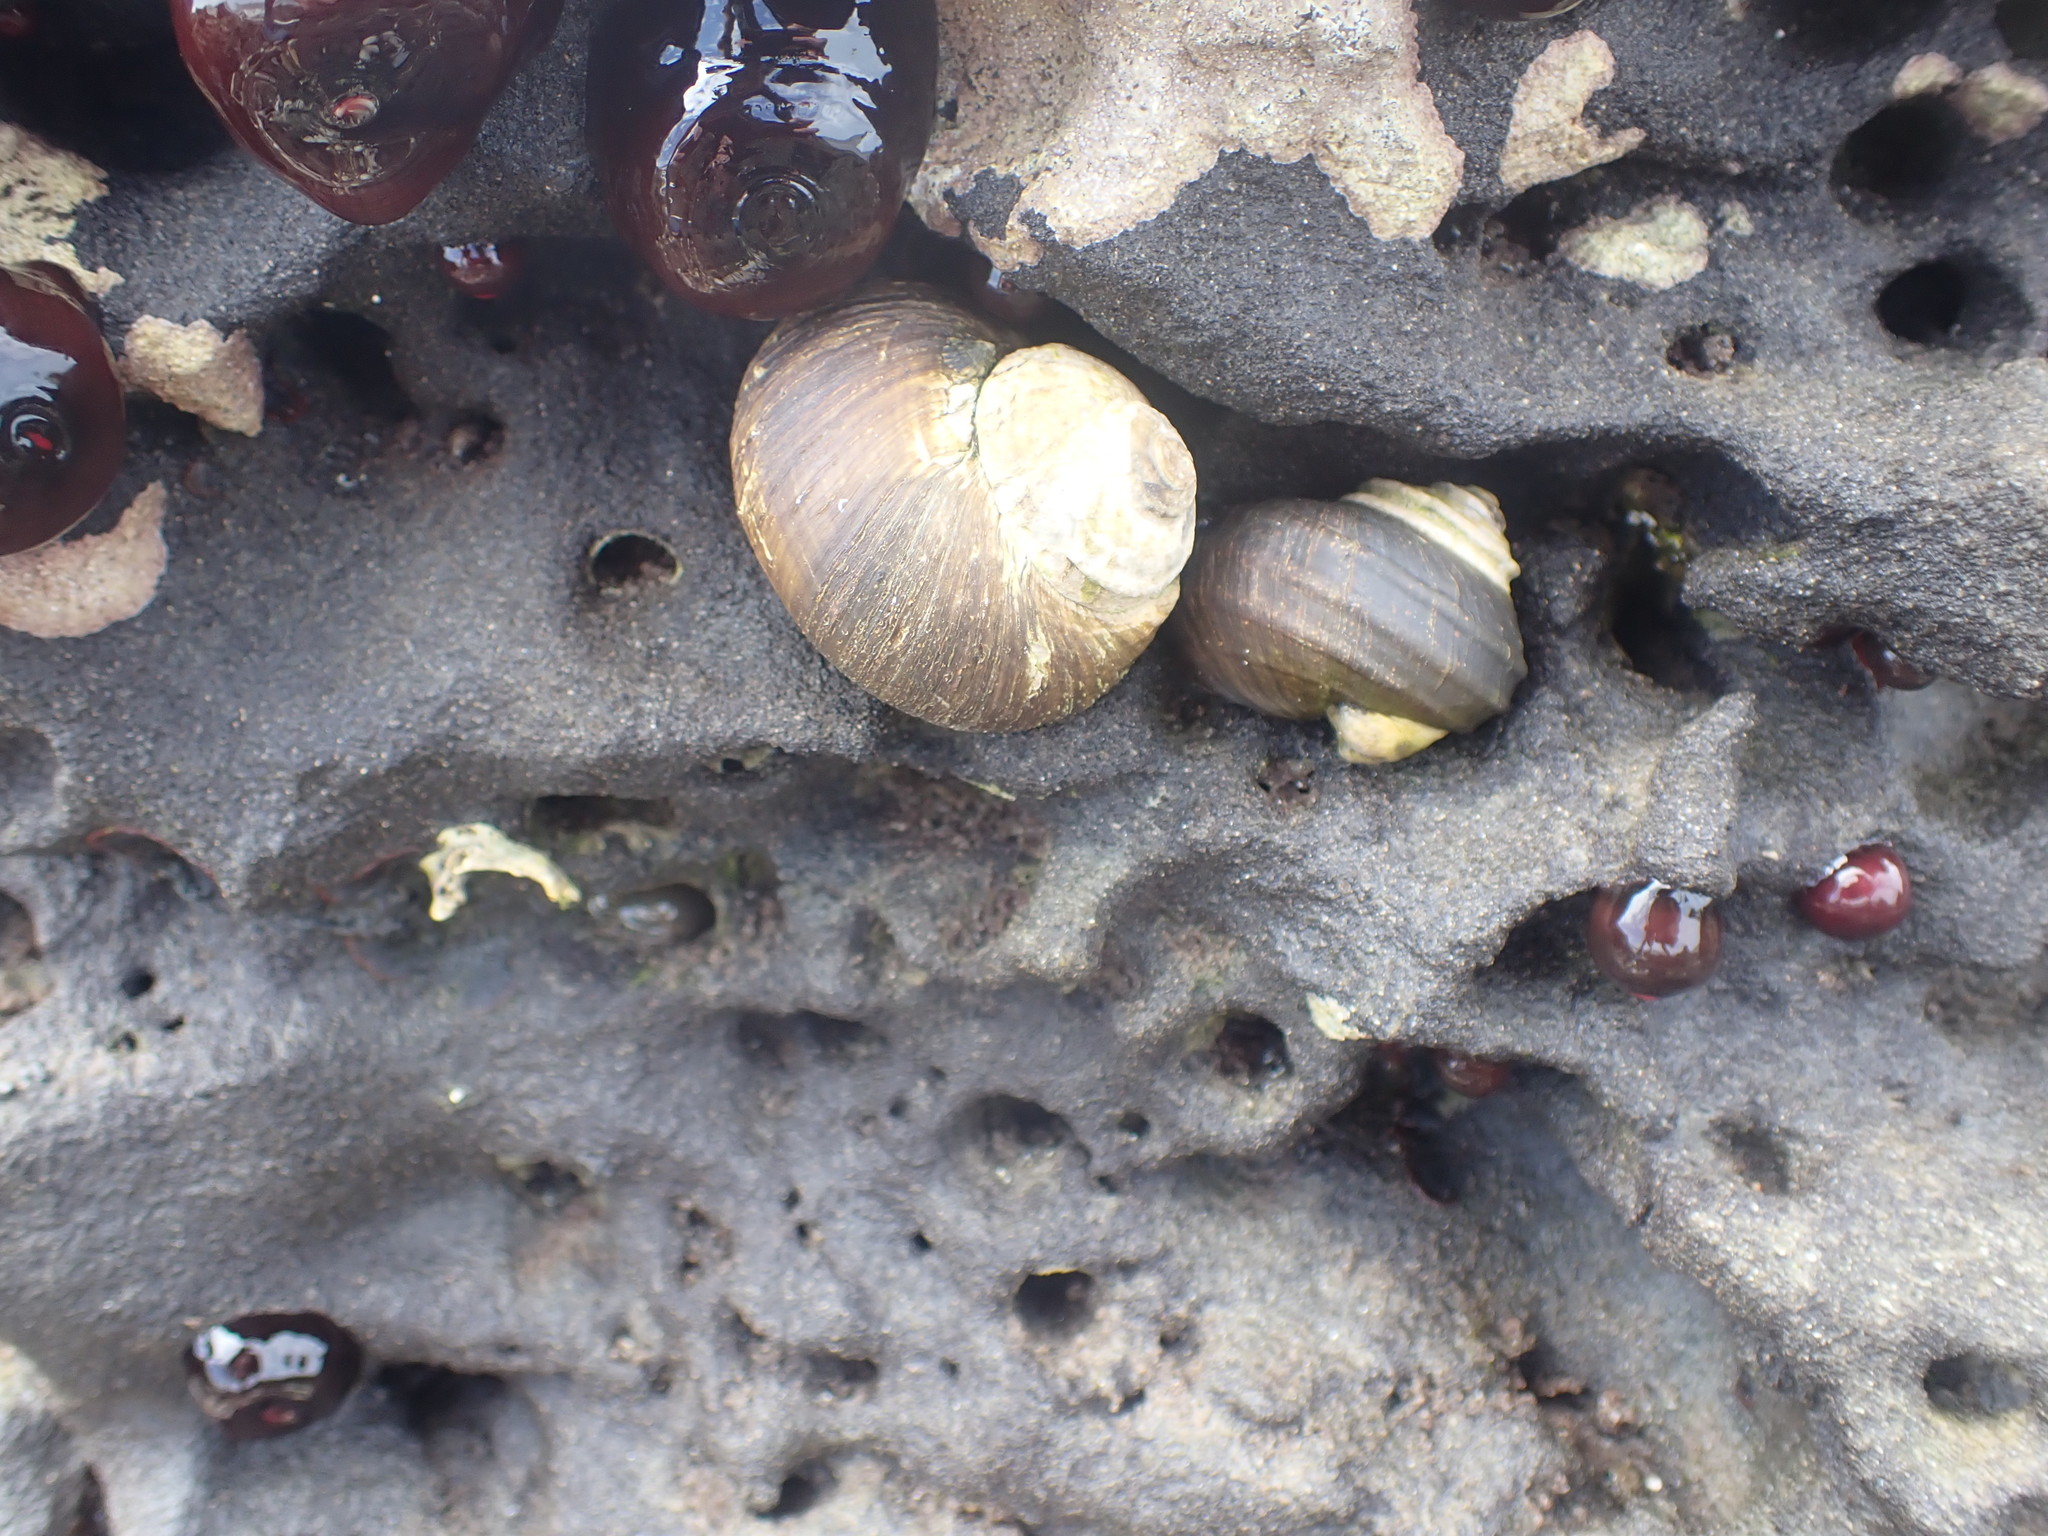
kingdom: Animalia
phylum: Mollusca
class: Gastropoda
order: Trochida
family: Turbinidae
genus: Lunella
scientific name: Lunella smaragda
